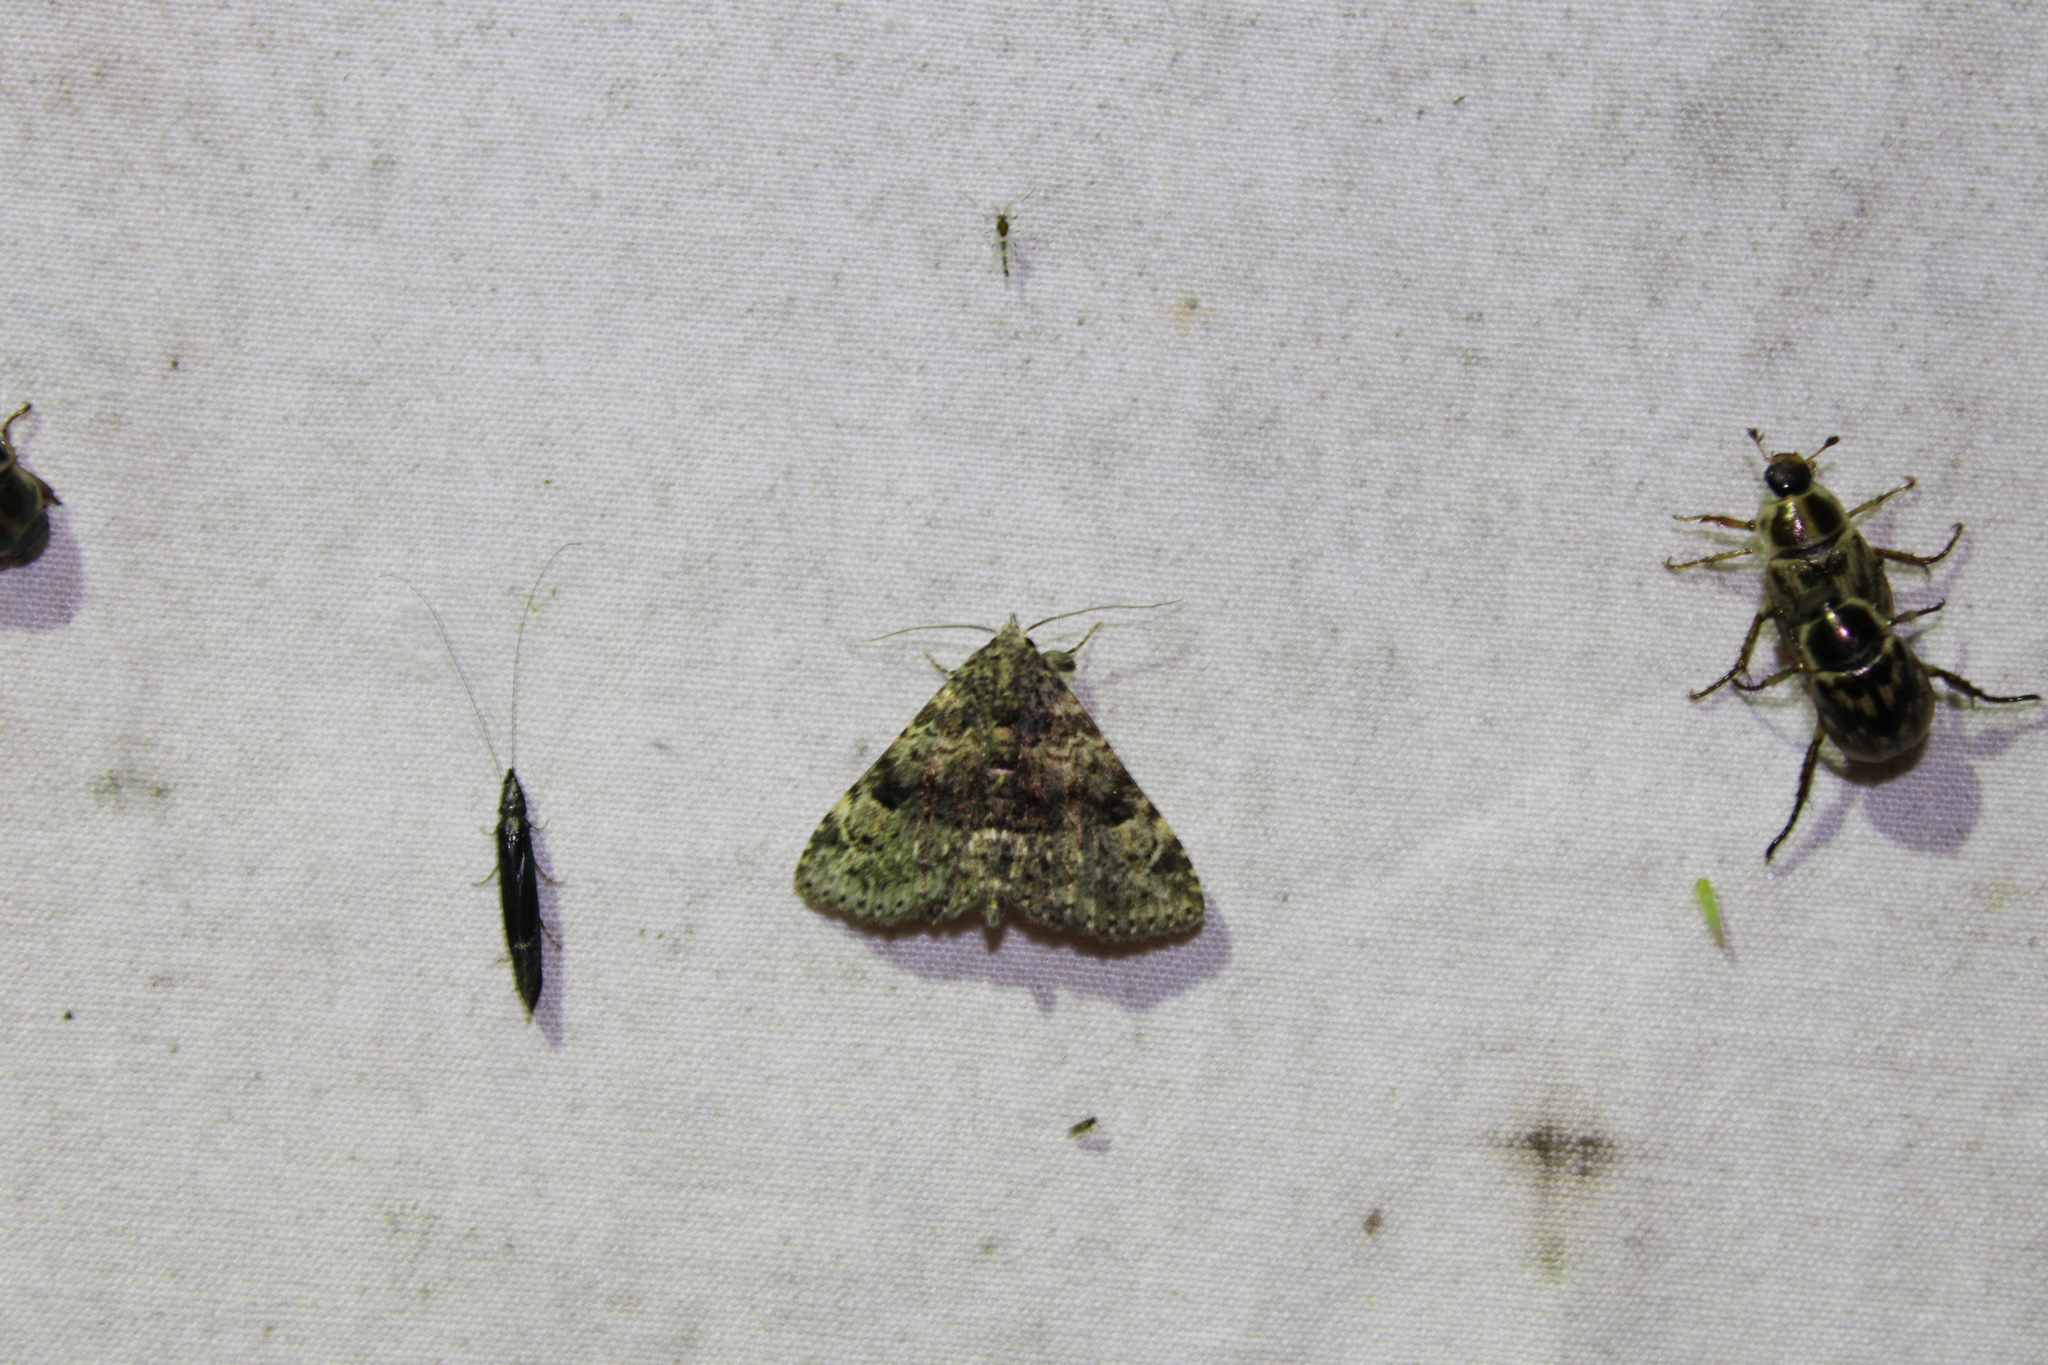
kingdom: Animalia
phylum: Arthropoda
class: Insecta
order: Lepidoptera
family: Erebidae
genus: Metalectra
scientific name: Metalectra discalis
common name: Common fungus moth
